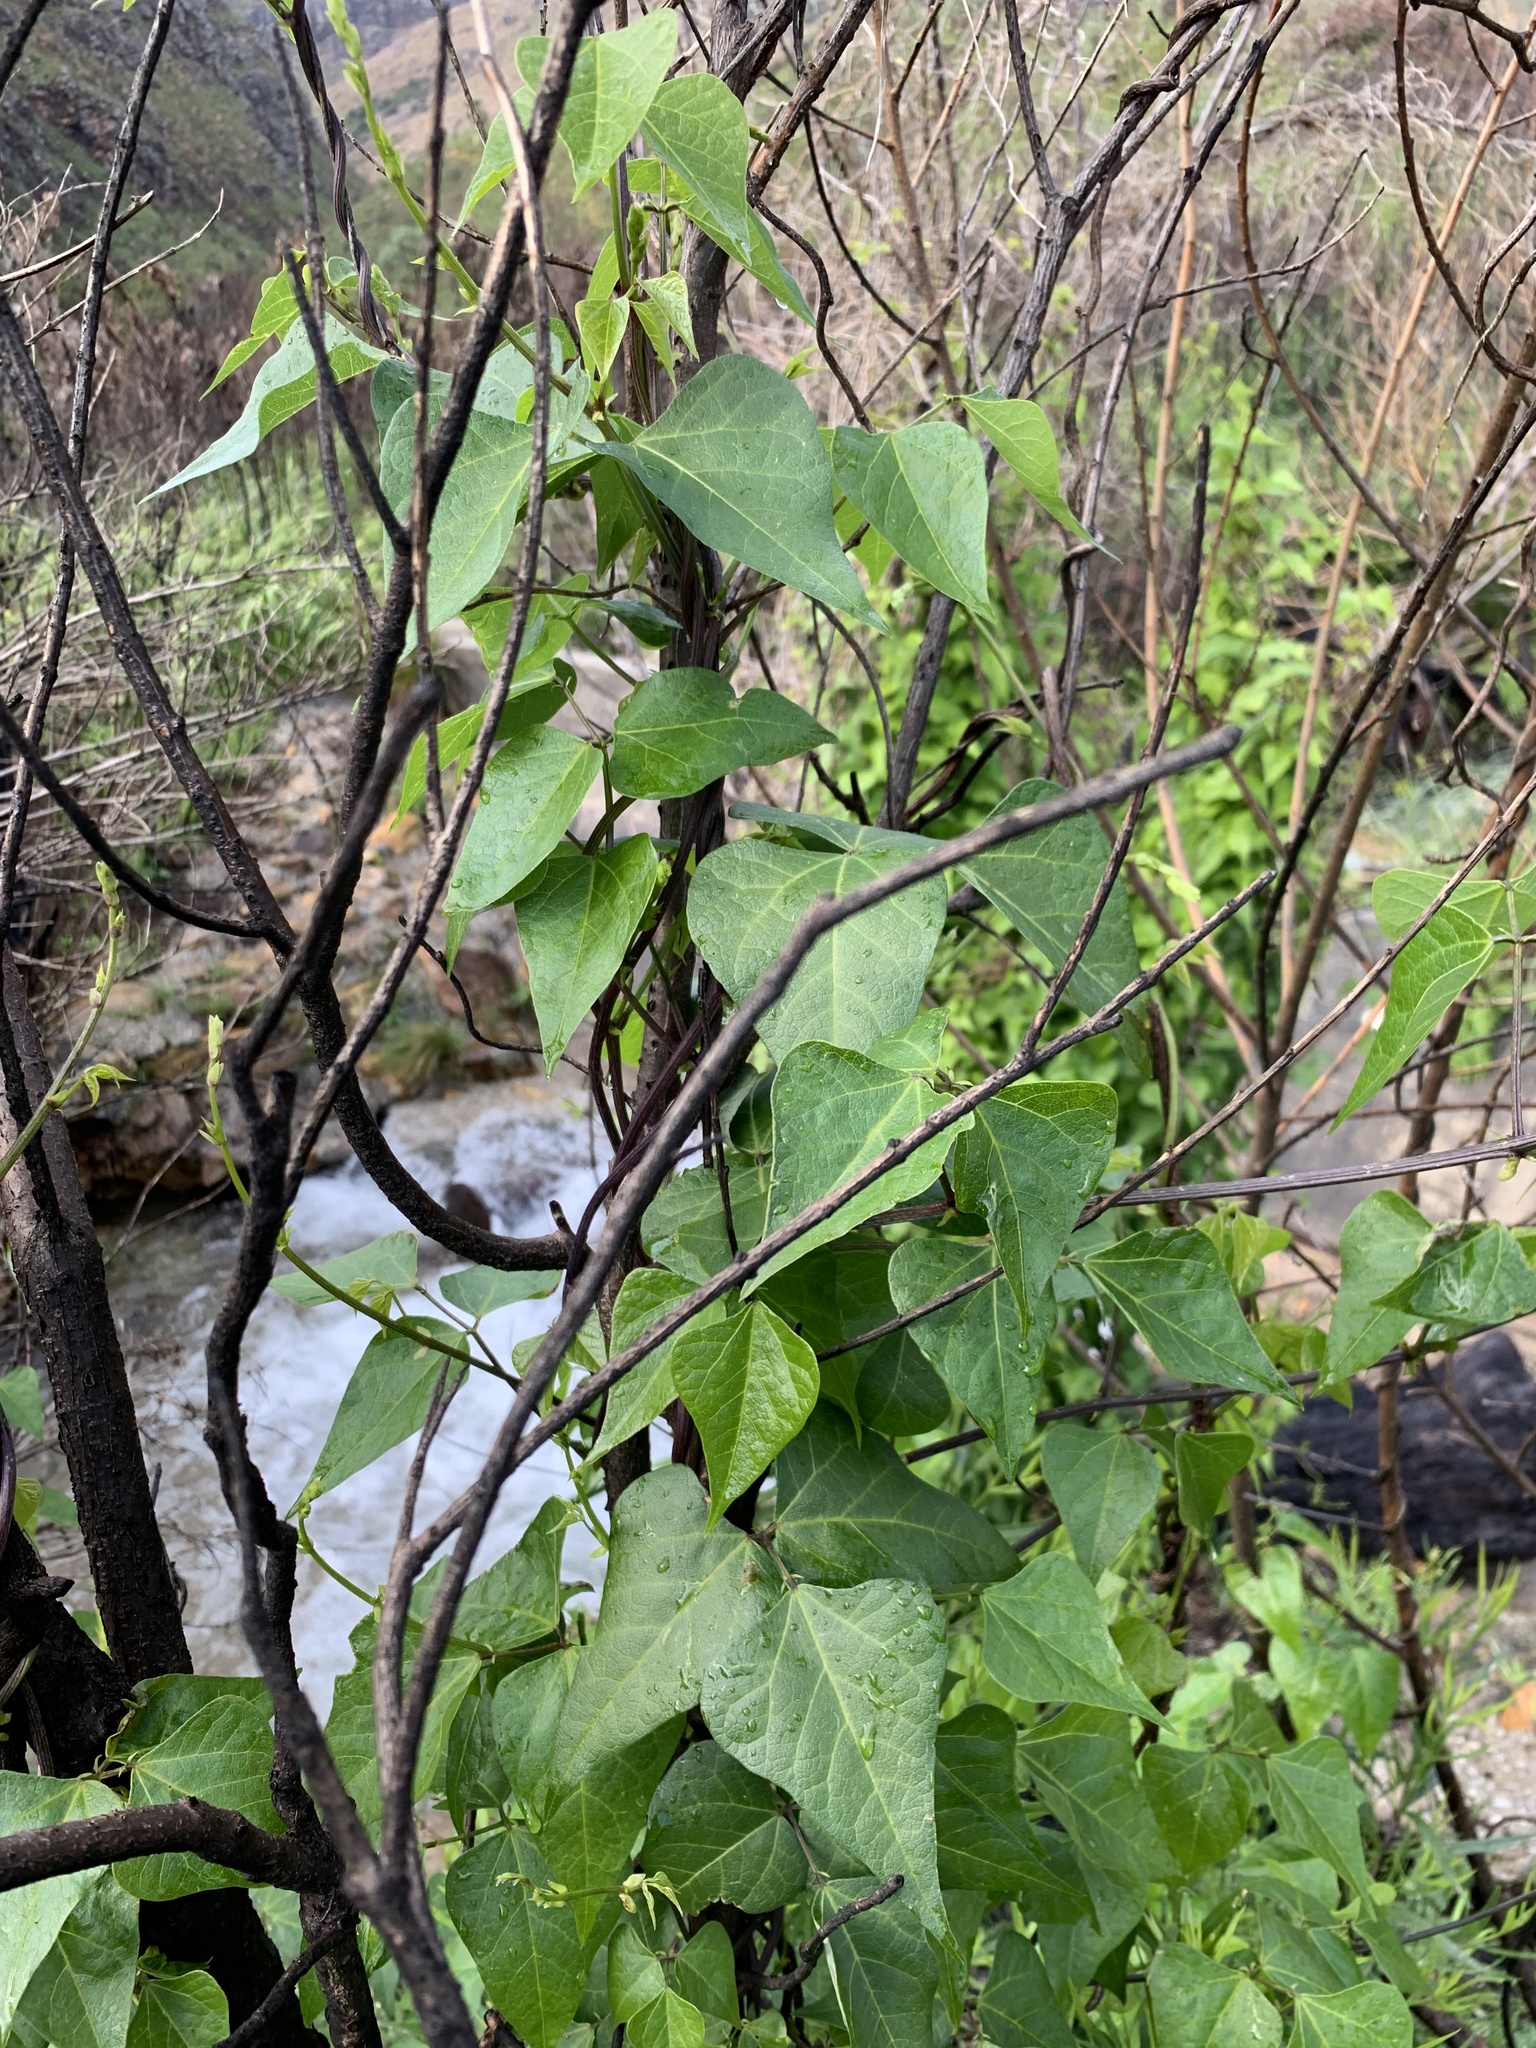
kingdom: Plantae
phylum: Tracheophyta
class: Magnoliopsida
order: Fabales
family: Fabaceae
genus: Dipogon
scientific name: Dipogon lignosus
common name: Okie bean
